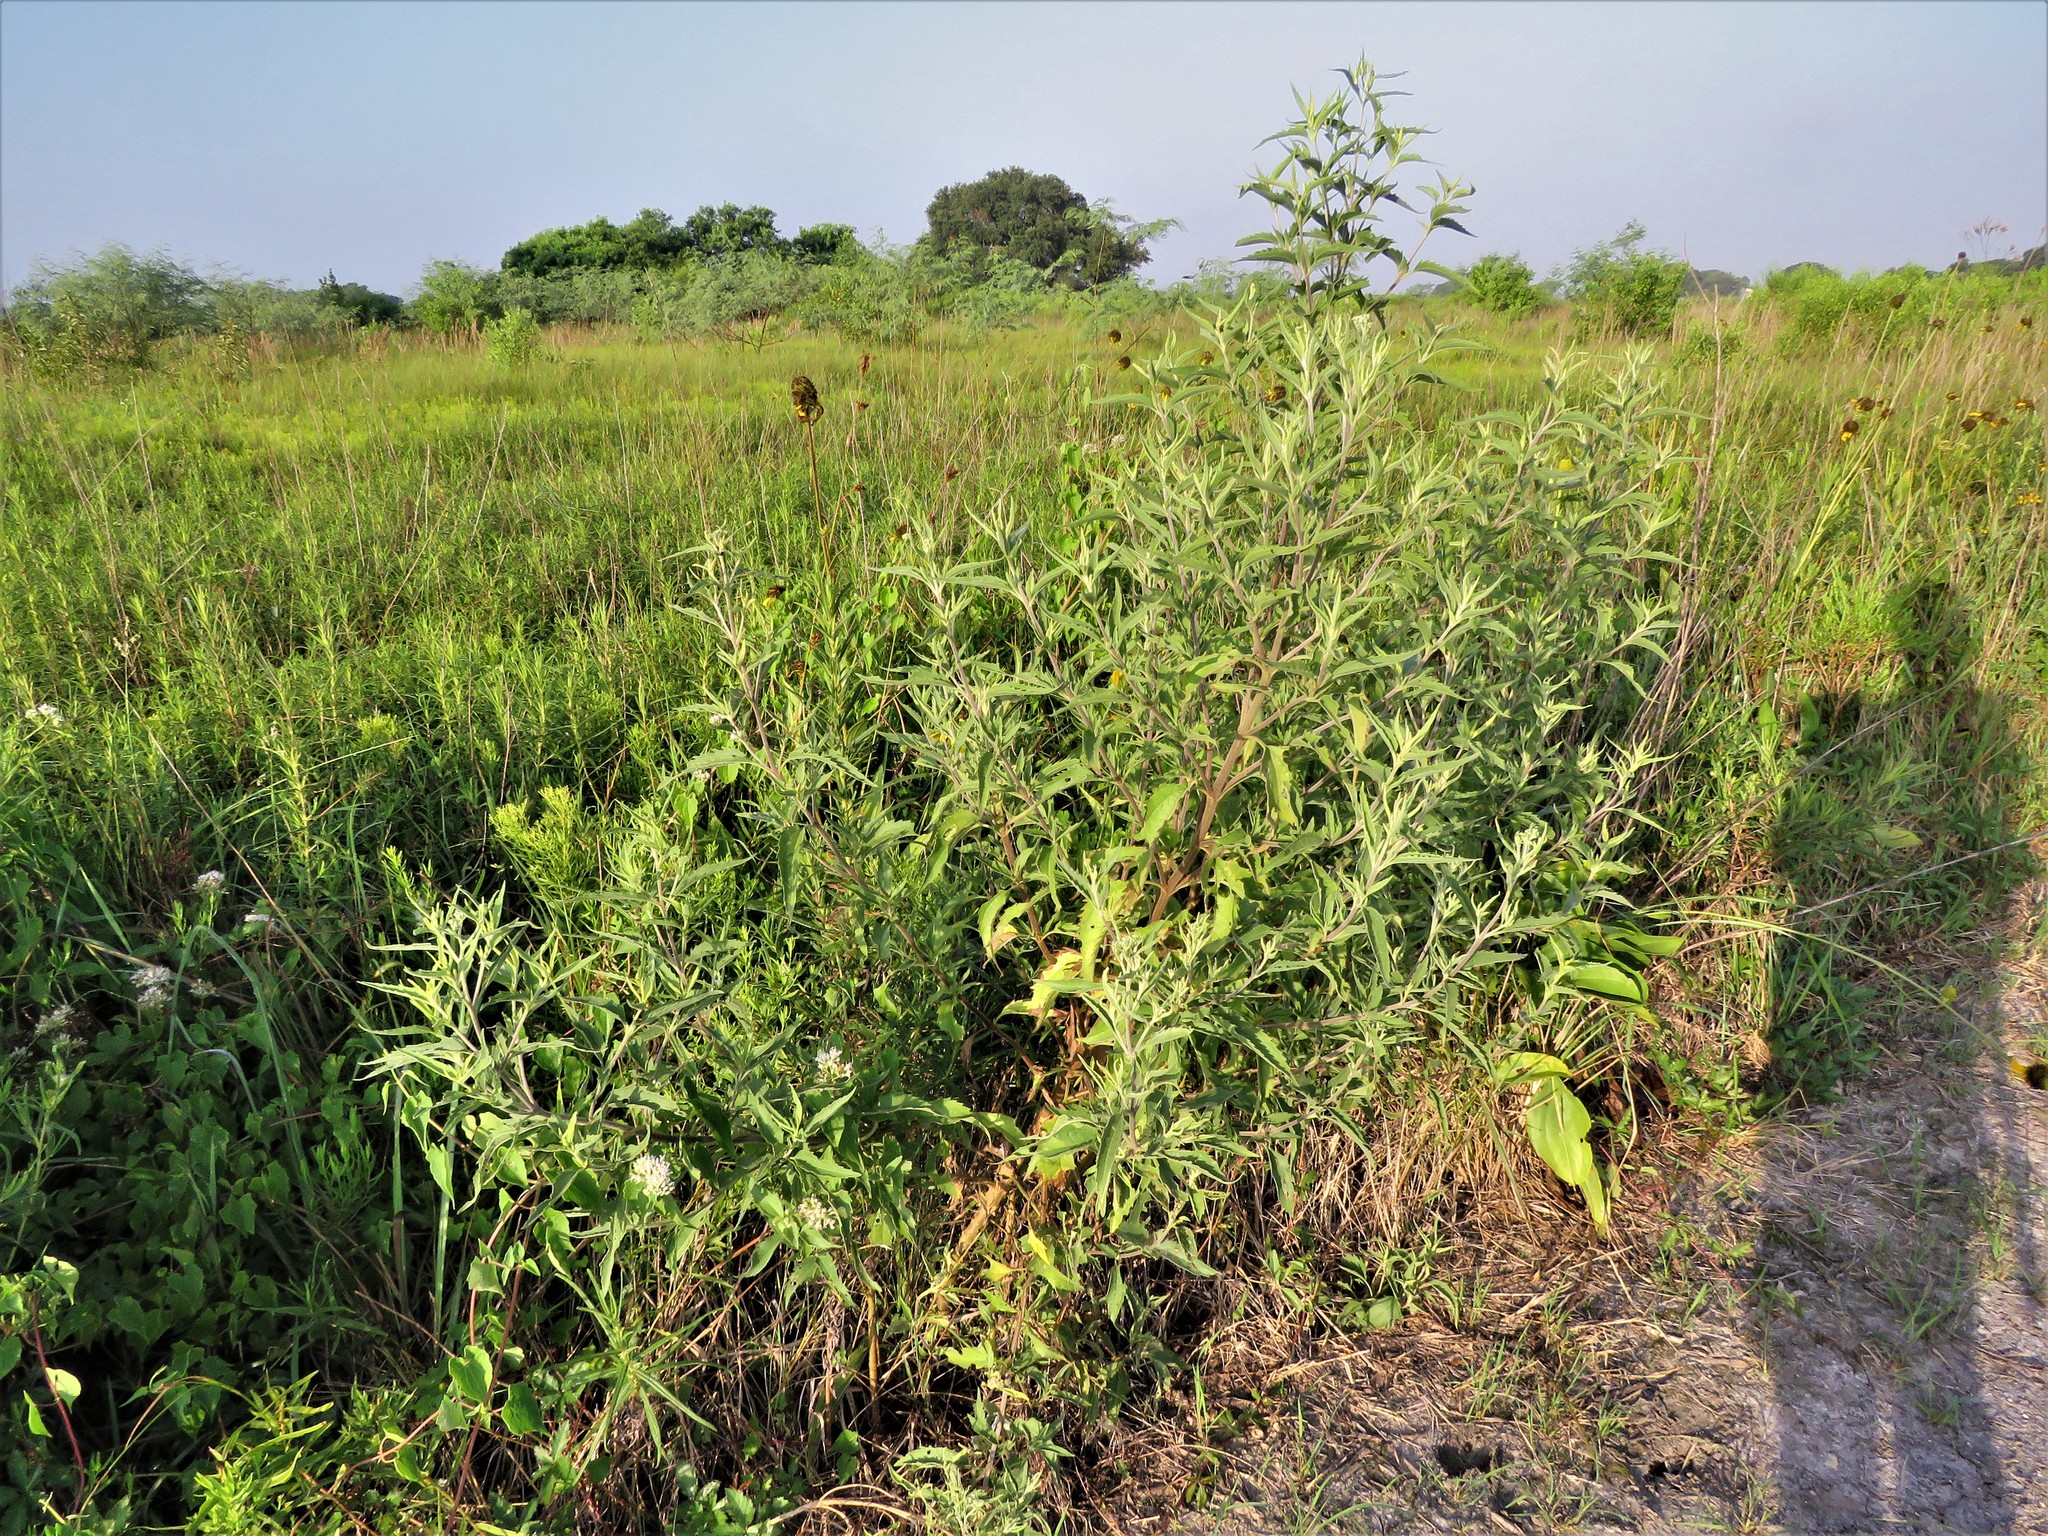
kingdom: Plantae
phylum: Tracheophyta
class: Magnoliopsida
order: Asterales
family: Asteraceae
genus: Eupatorium
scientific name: Eupatorium serotinum
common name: Late boneset
